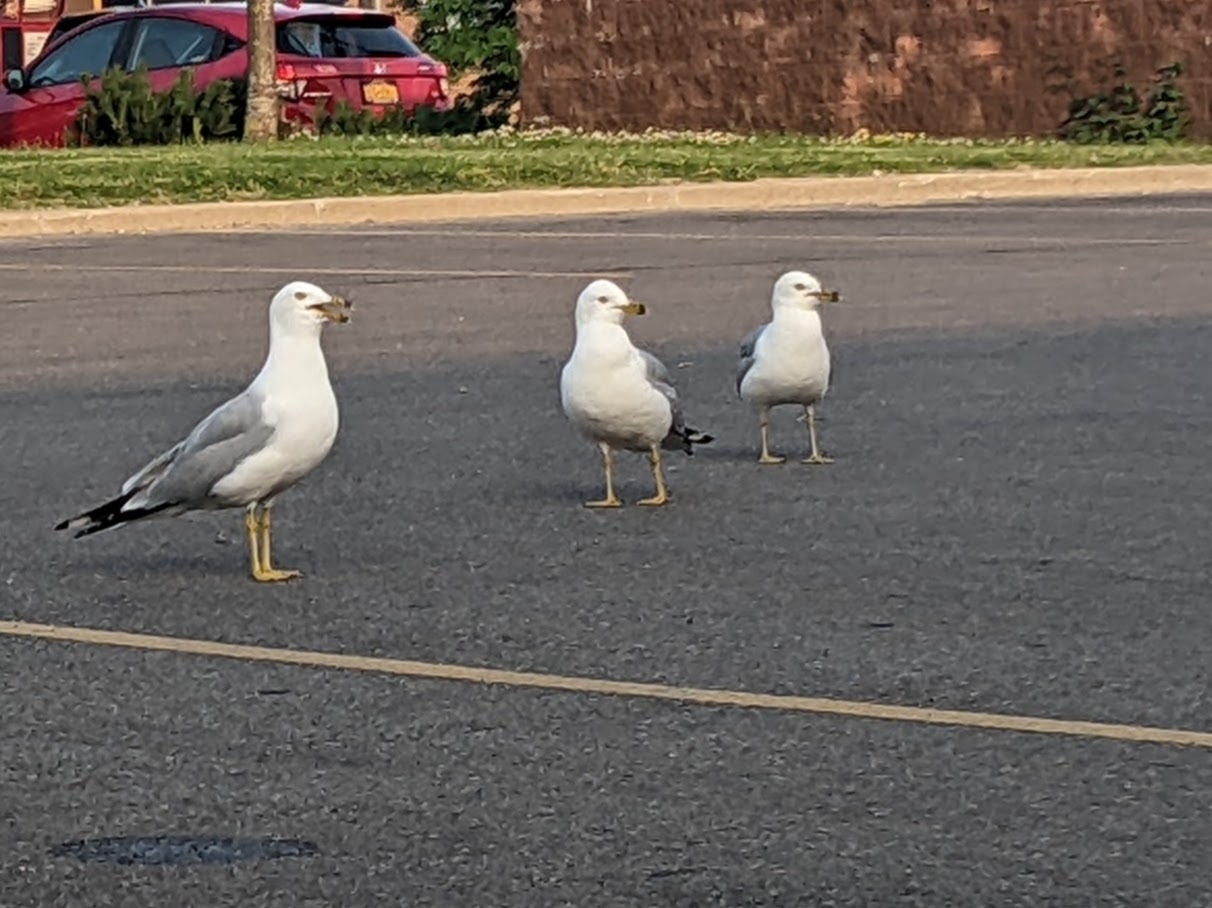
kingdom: Animalia
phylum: Chordata
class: Aves
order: Charadriiformes
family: Laridae
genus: Larus
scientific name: Larus delawarensis
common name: Ring-billed gull
